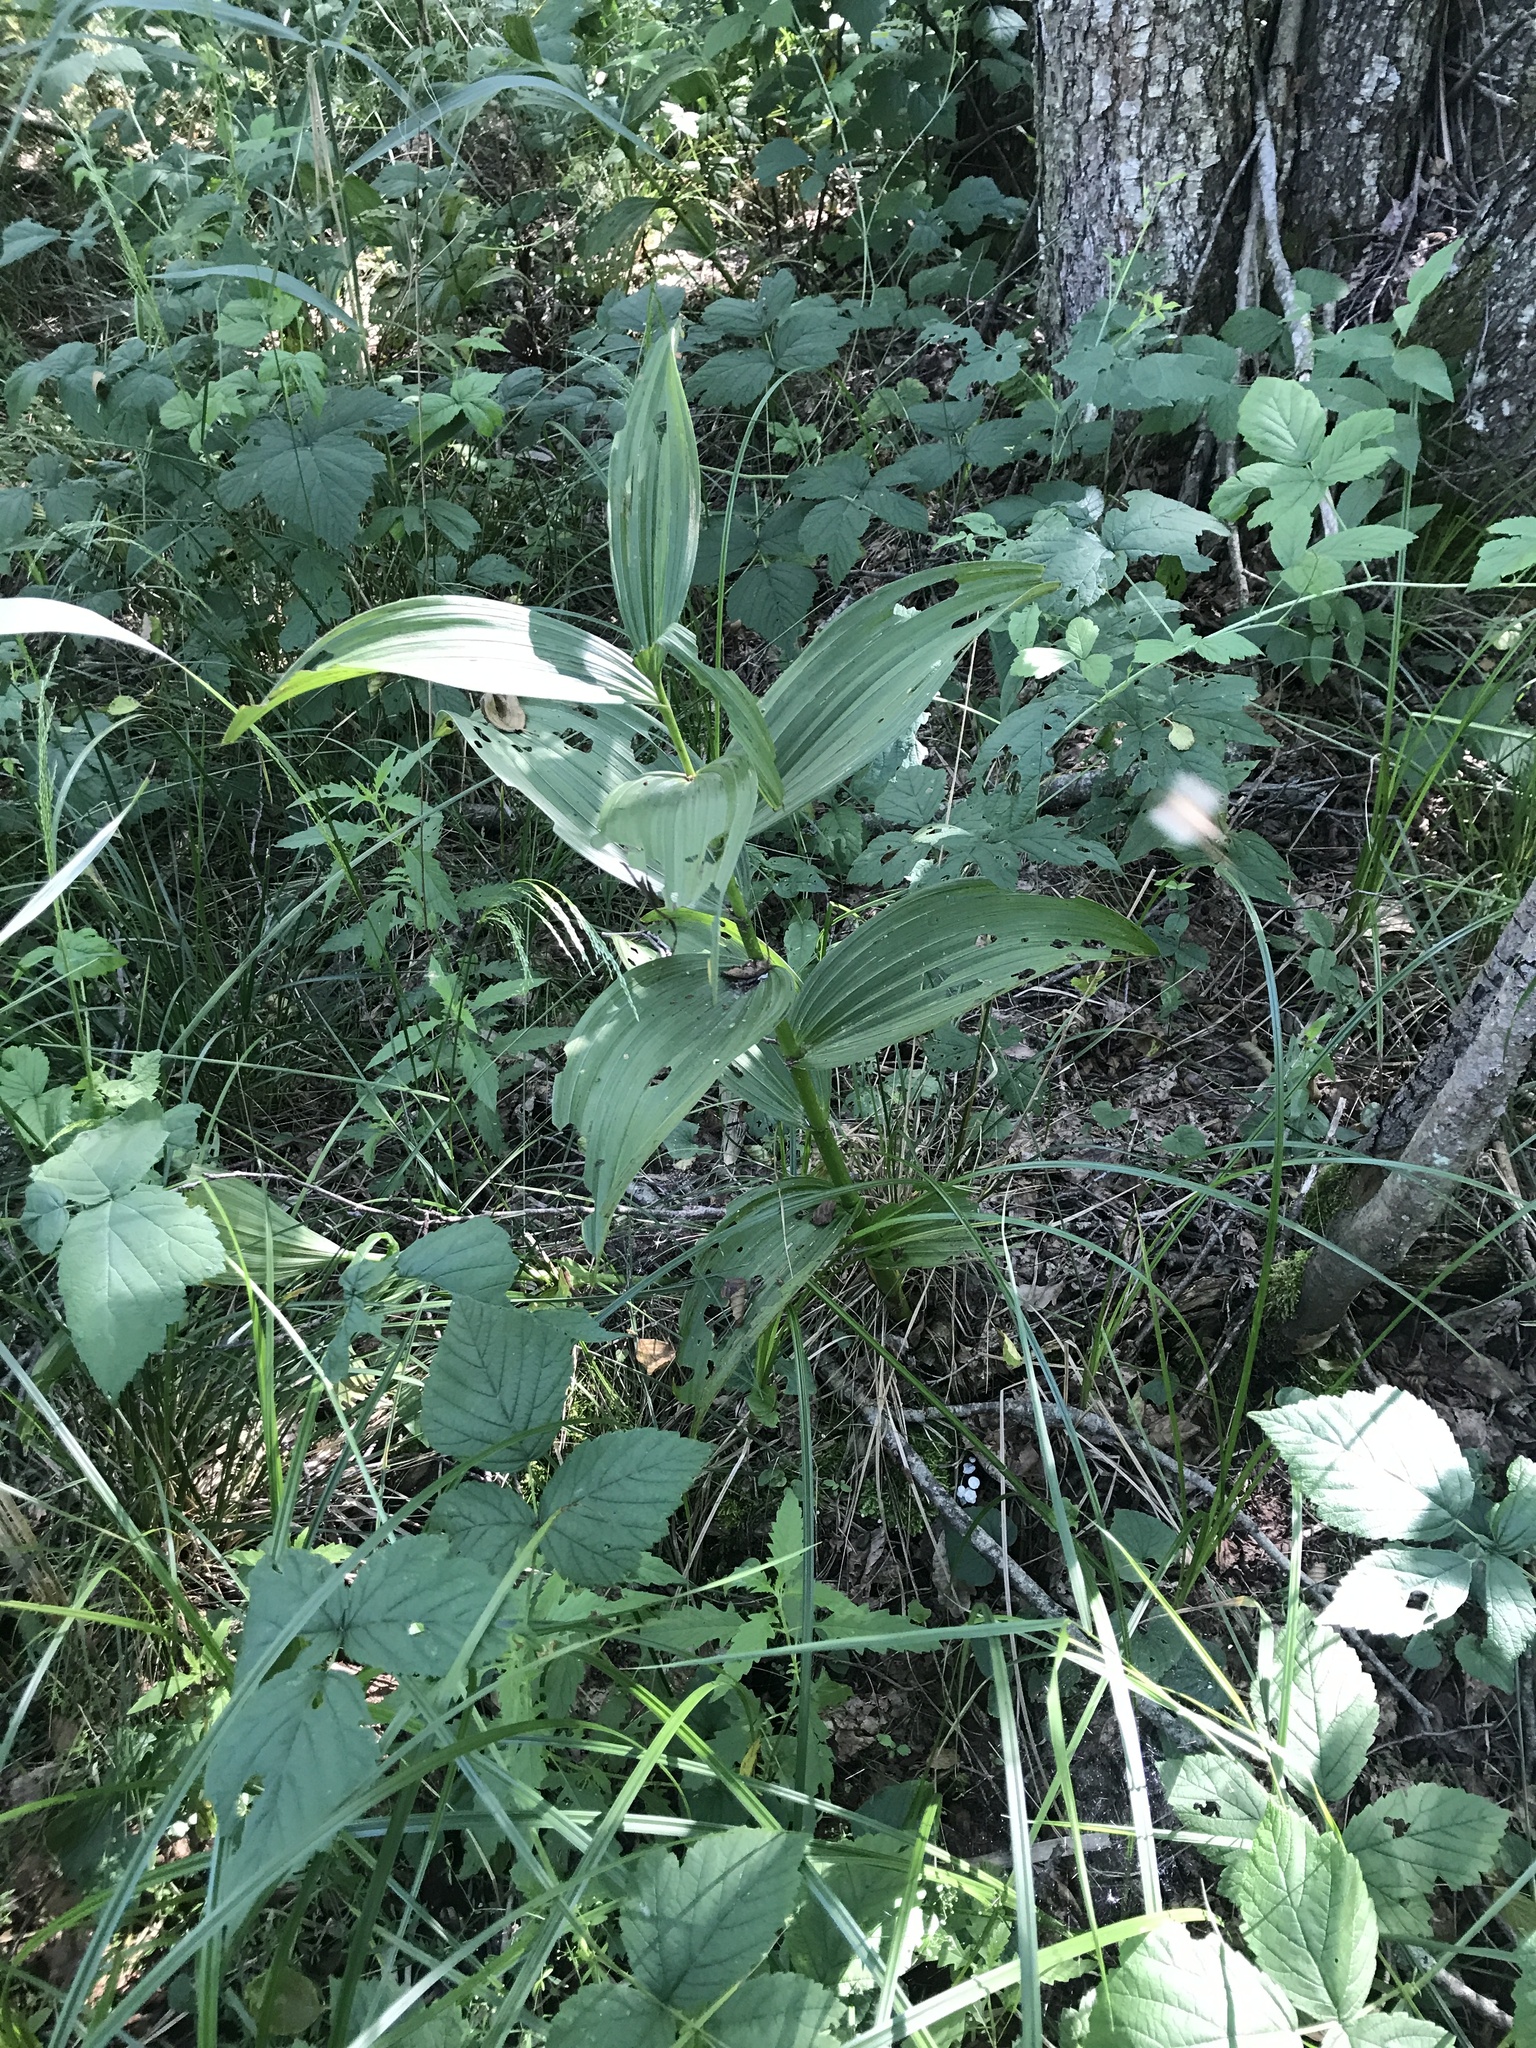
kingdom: Plantae
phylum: Tracheophyta
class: Liliopsida
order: Liliales
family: Melanthiaceae
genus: Veratrum
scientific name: Veratrum lobelianum
